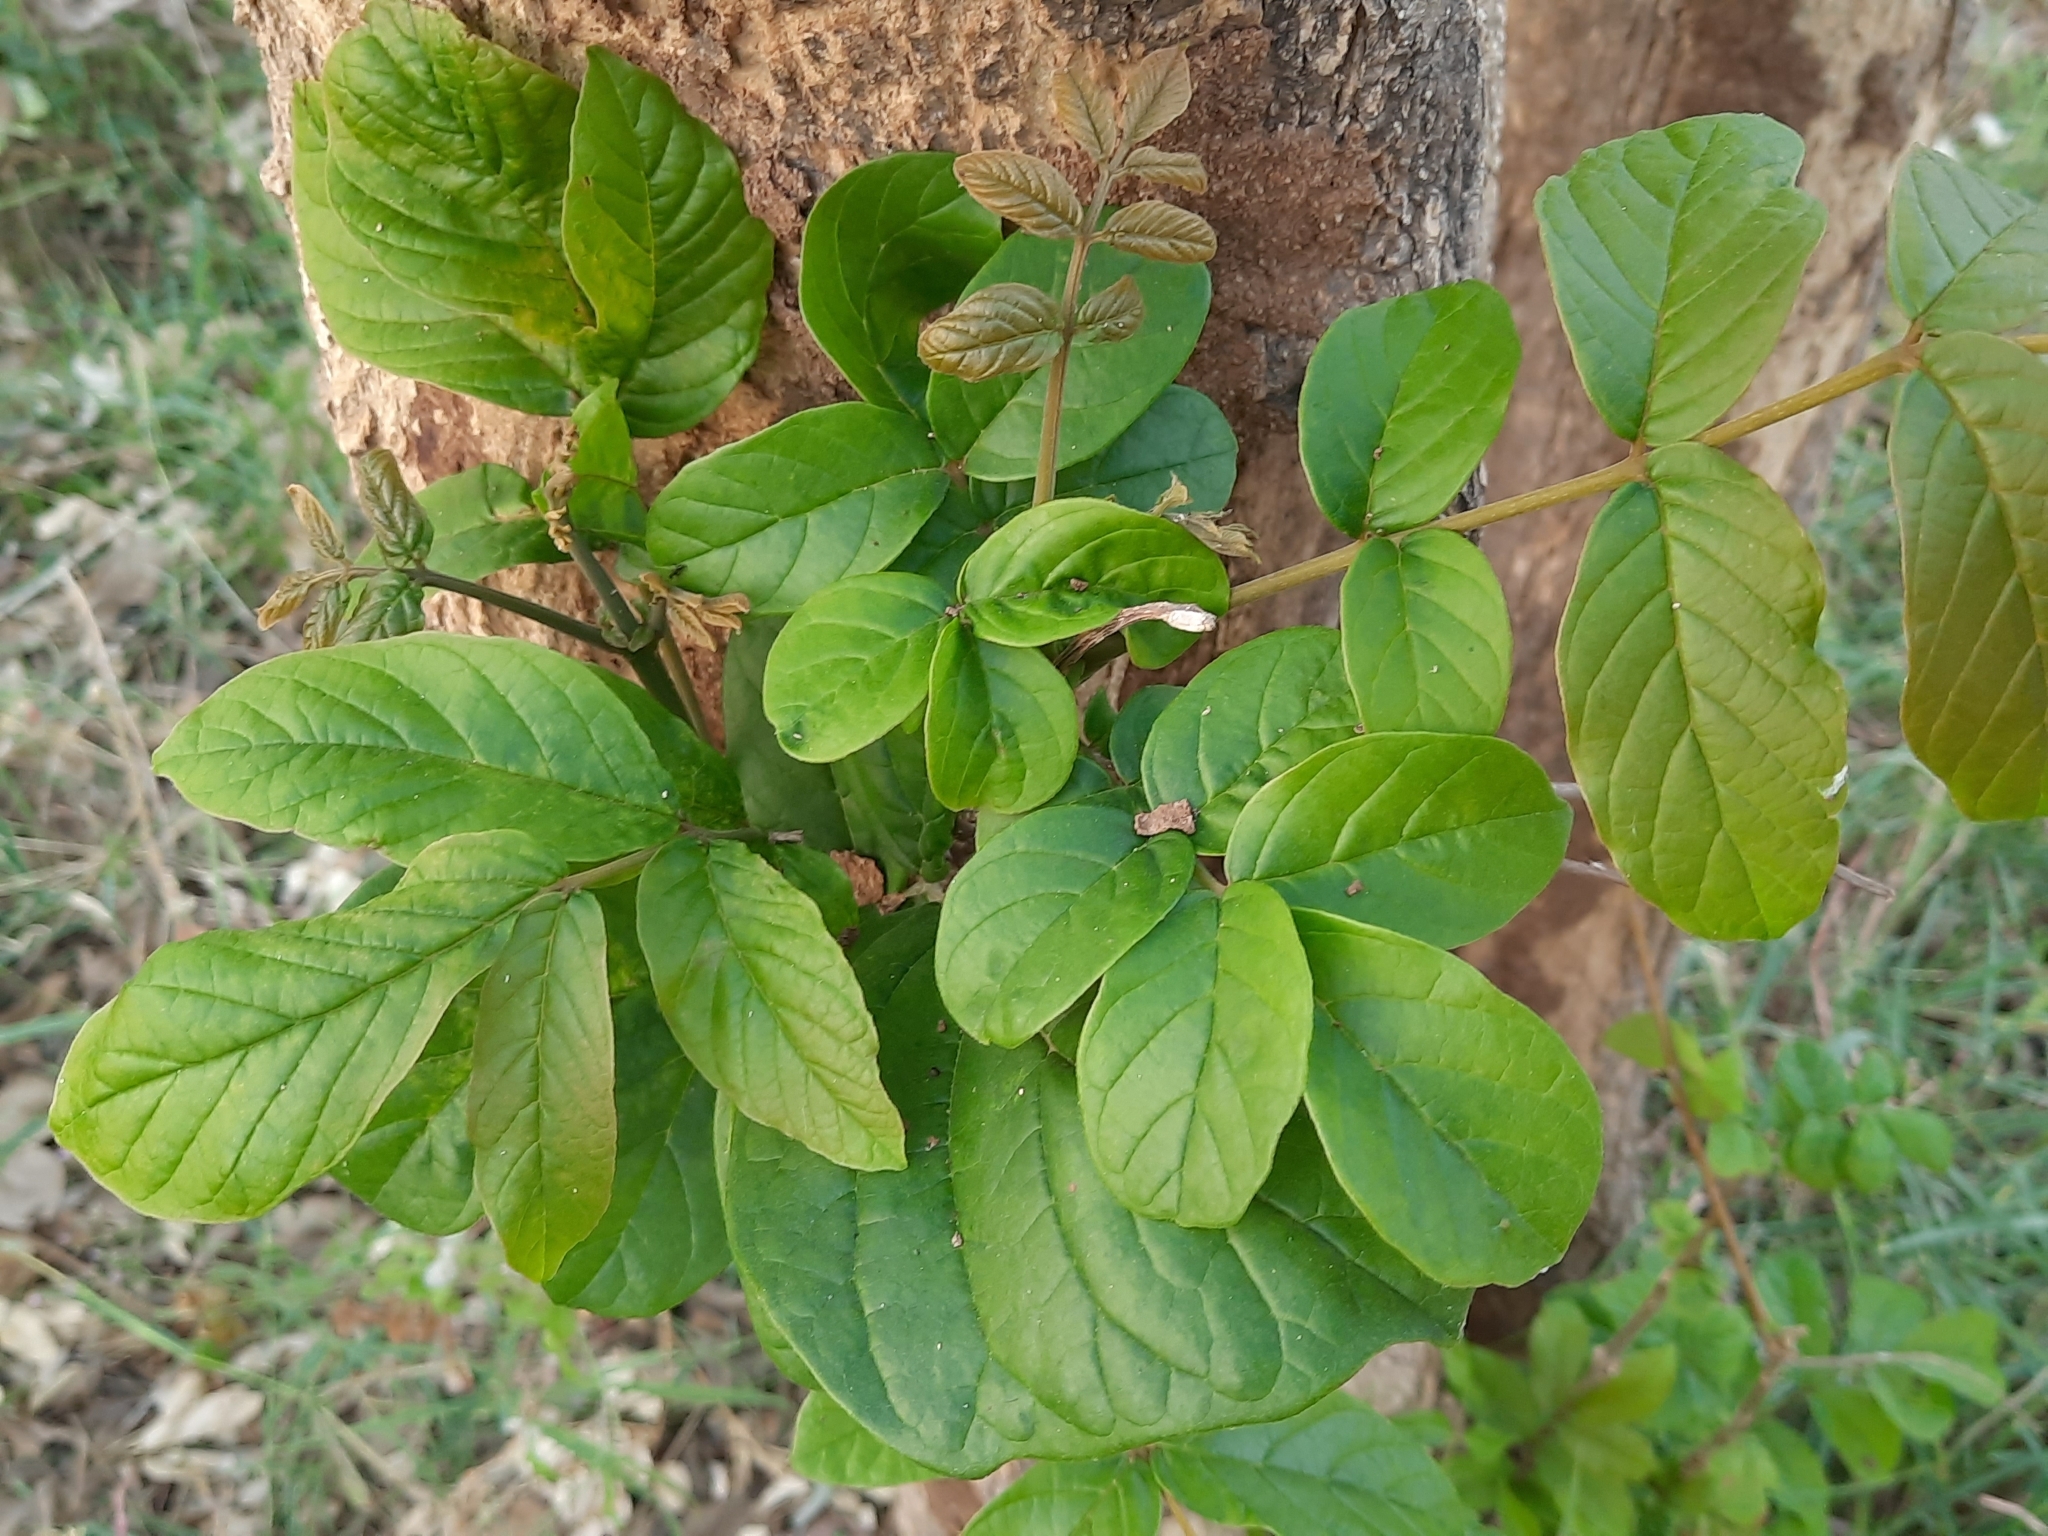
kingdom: Plantae
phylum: Tracheophyta
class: Magnoliopsida
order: Lamiales
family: Bignoniaceae
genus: Spathodea
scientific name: Spathodea campanulata
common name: African tuliptree
